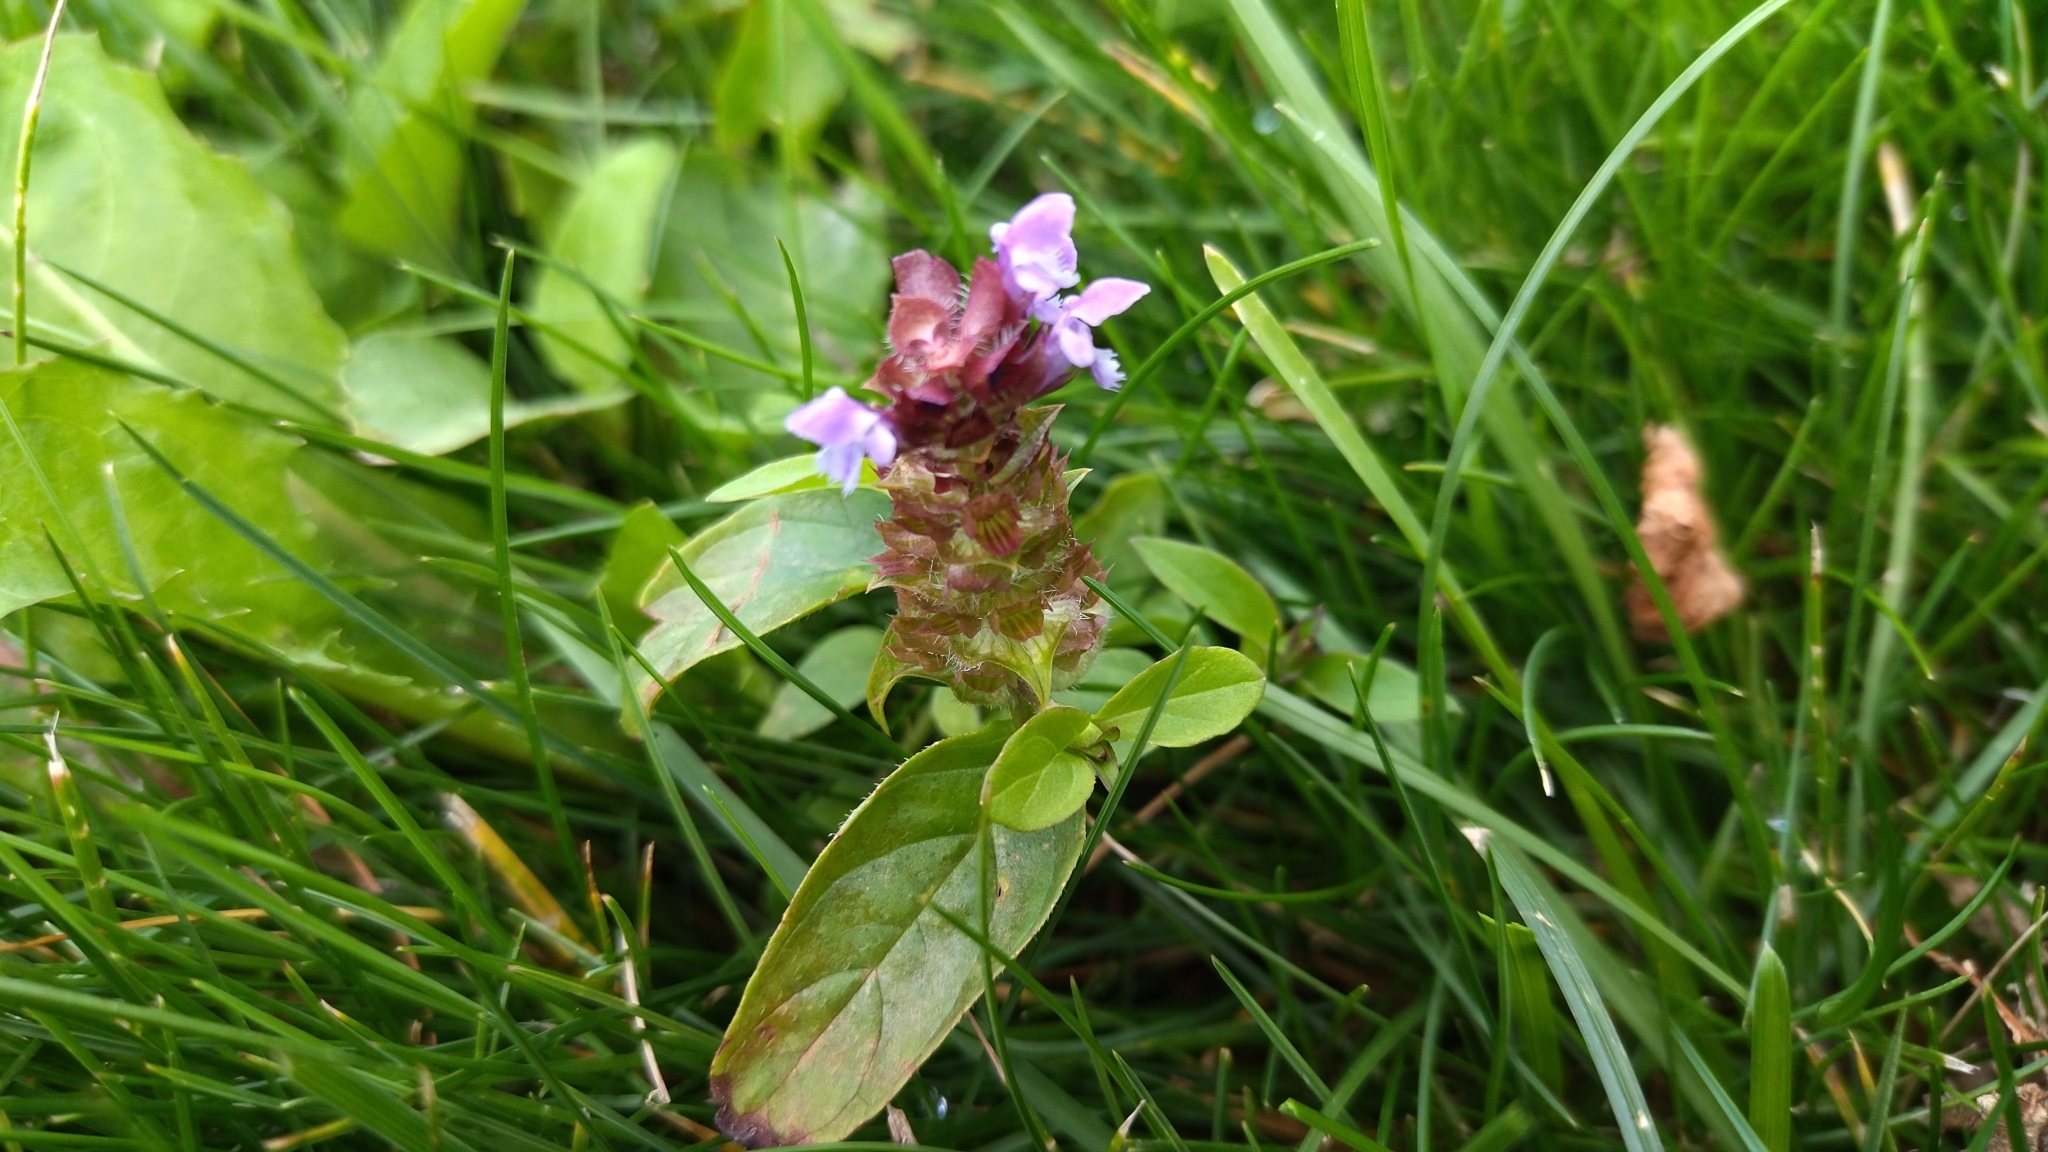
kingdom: Plantae
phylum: Tracheophyta
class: Magnoliopsida
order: Lamiales
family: Lamiaceae
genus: Prunella
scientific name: Prunella vulgaris
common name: Heal-all
